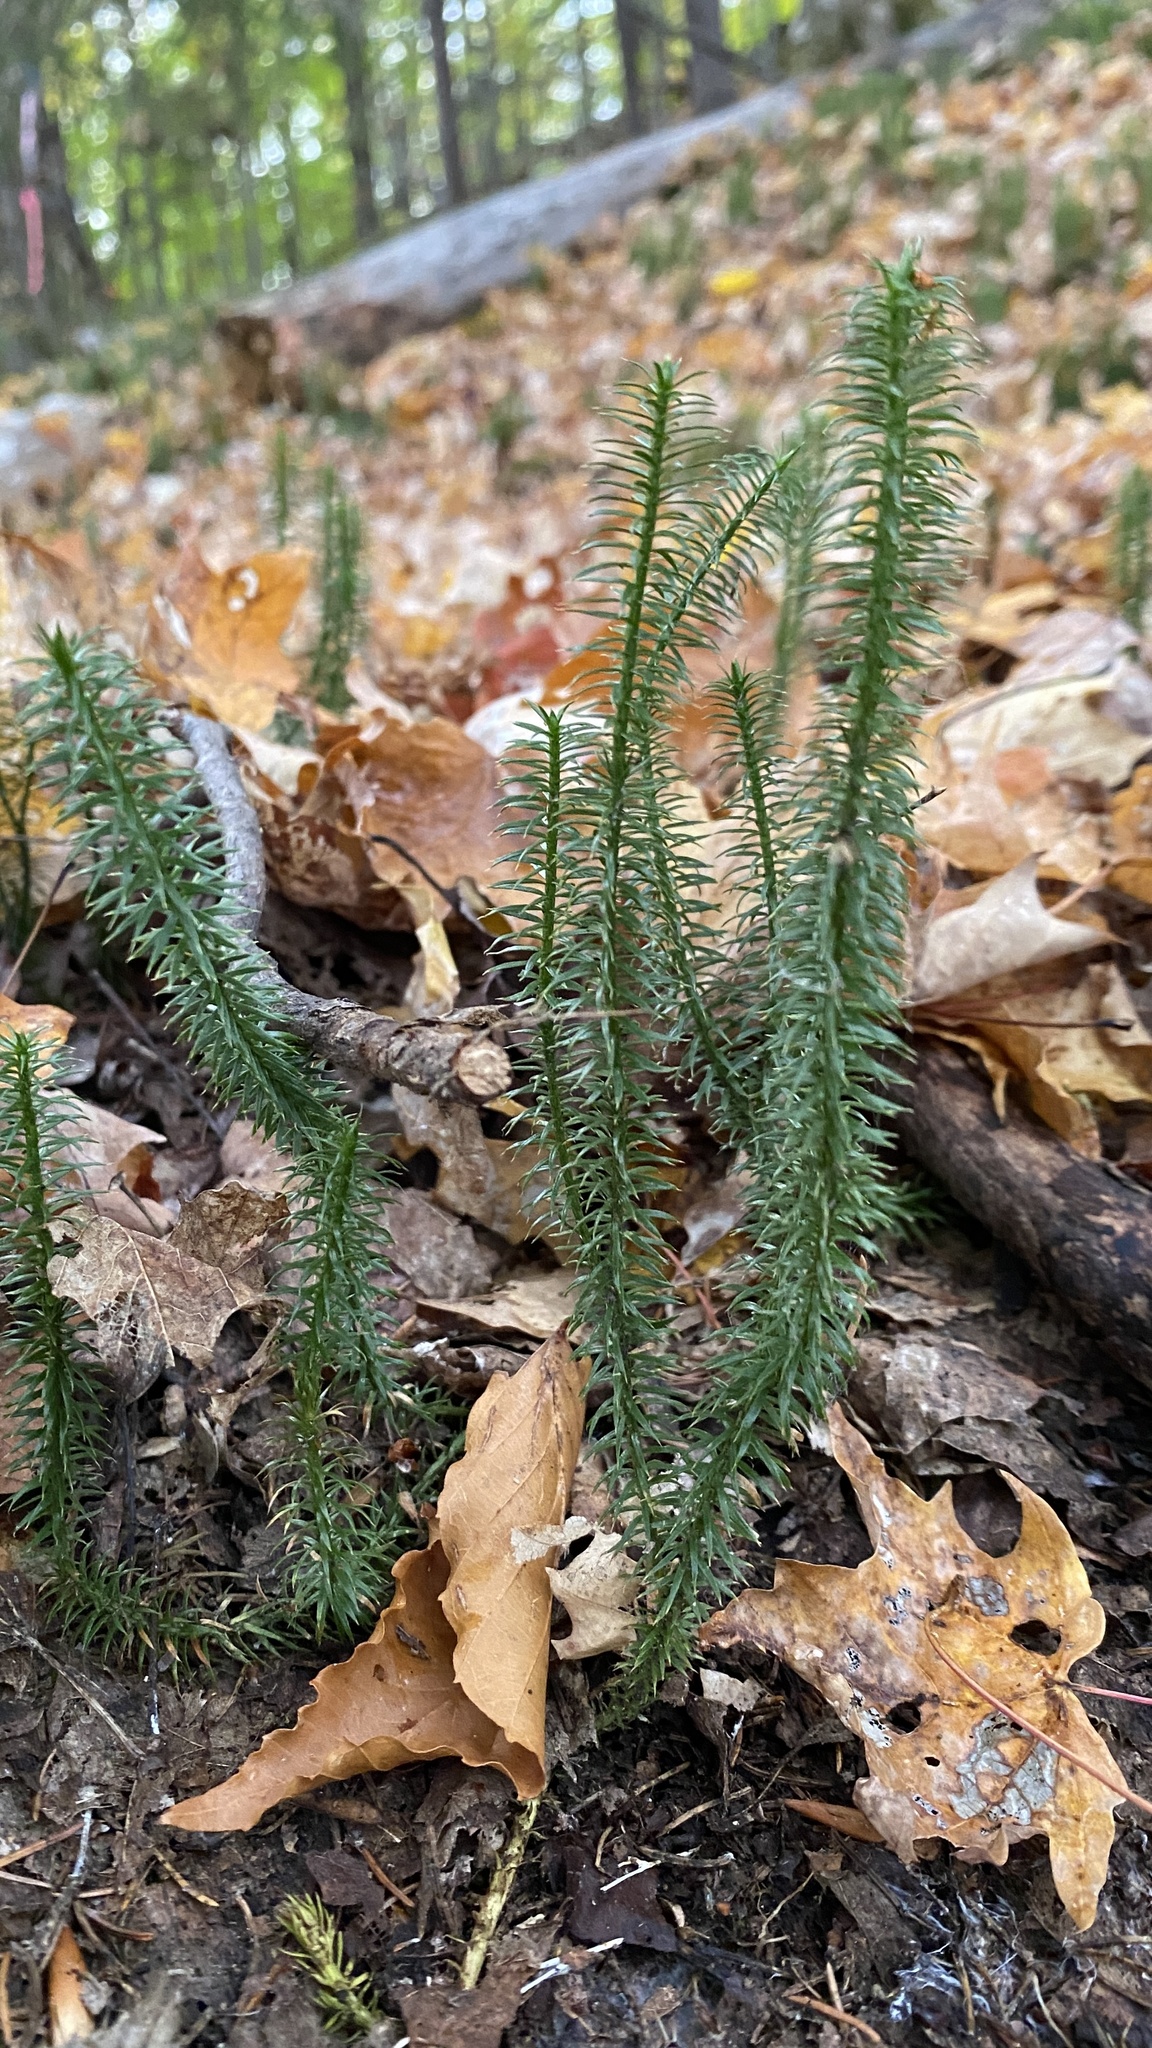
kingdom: Plantae
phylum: Tracheophyta
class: Lycopodiopsida
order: Lycopodiales
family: Lycopodiaceae
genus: Spinulum
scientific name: Spinulum annotinum
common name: Interrupted club-moss
